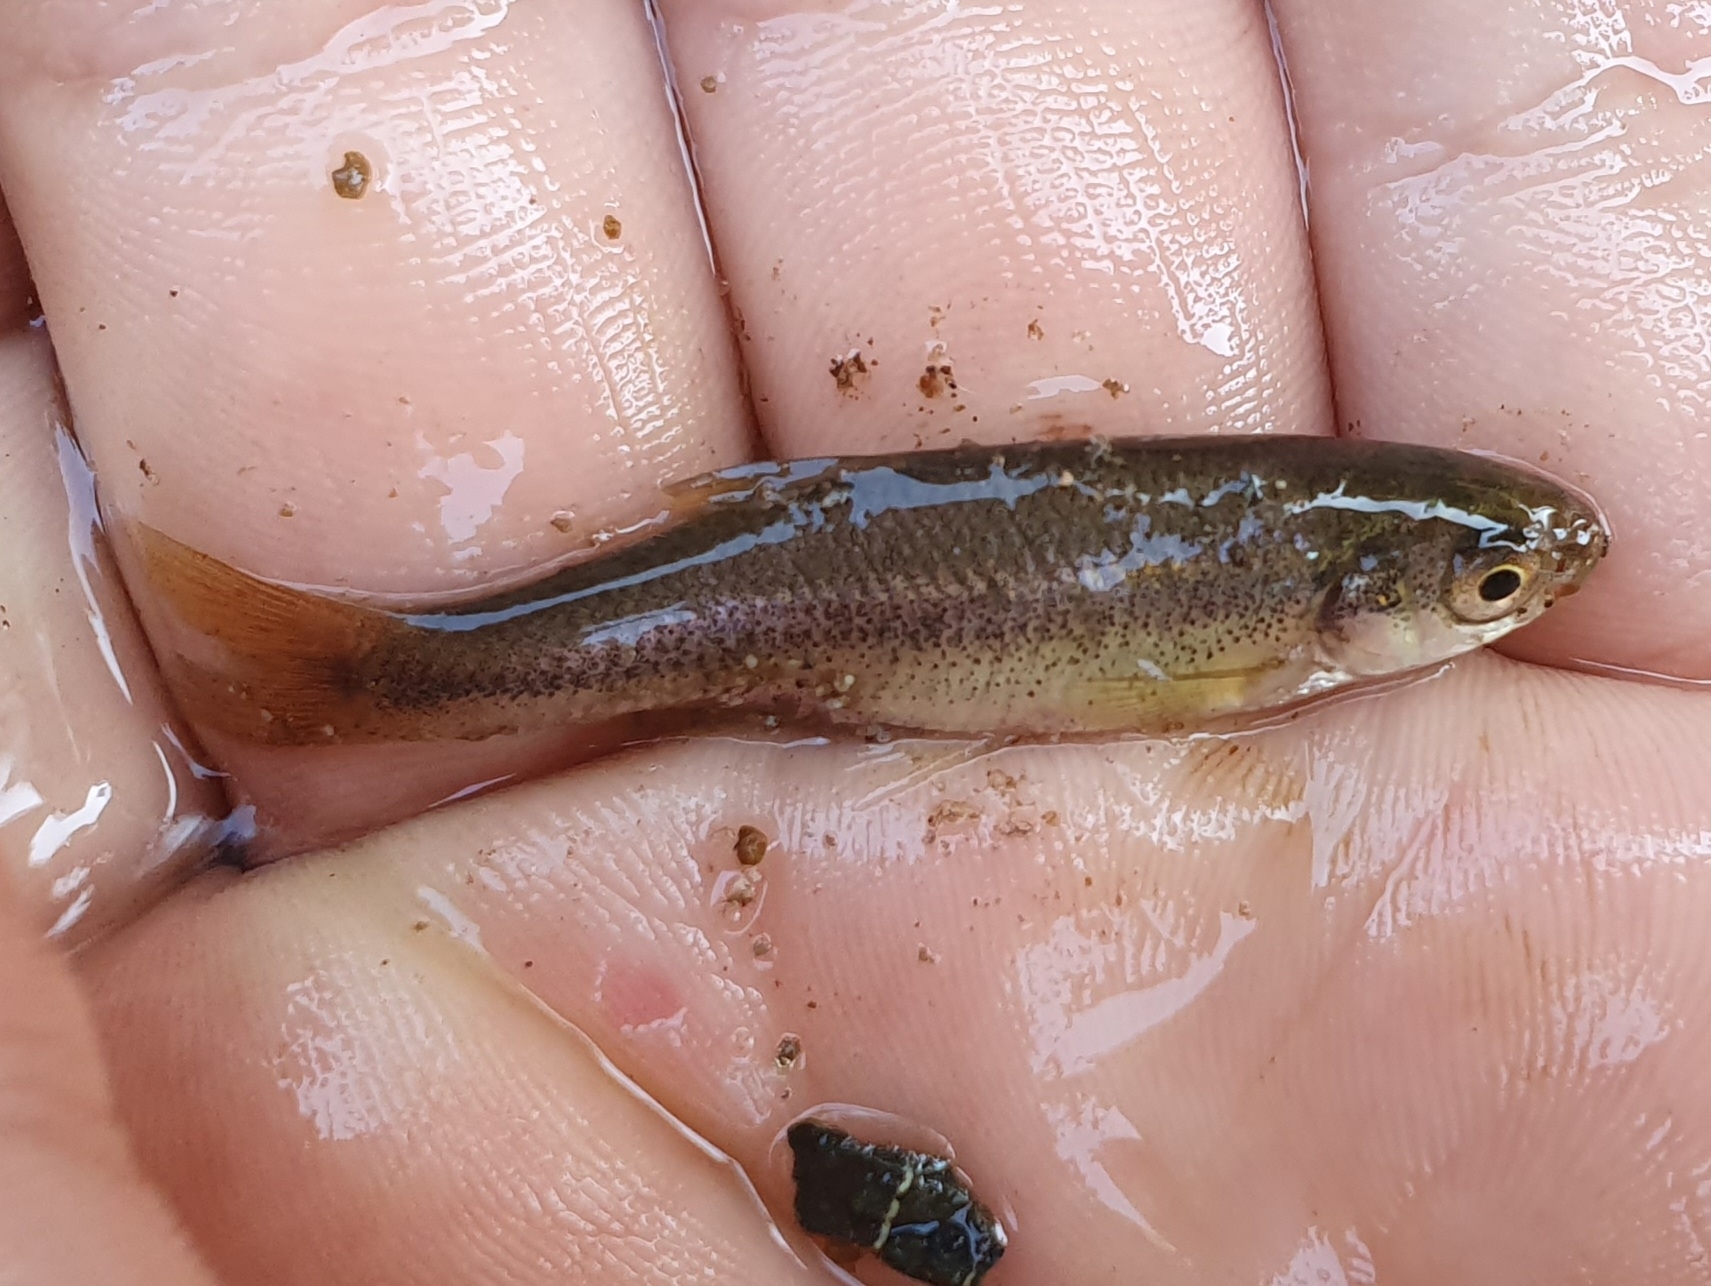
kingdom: Animalia
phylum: Chordata
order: Cypriniformes
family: Cyprinidae
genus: Pseudophoxinus
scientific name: Pseudophoxinus callensis
